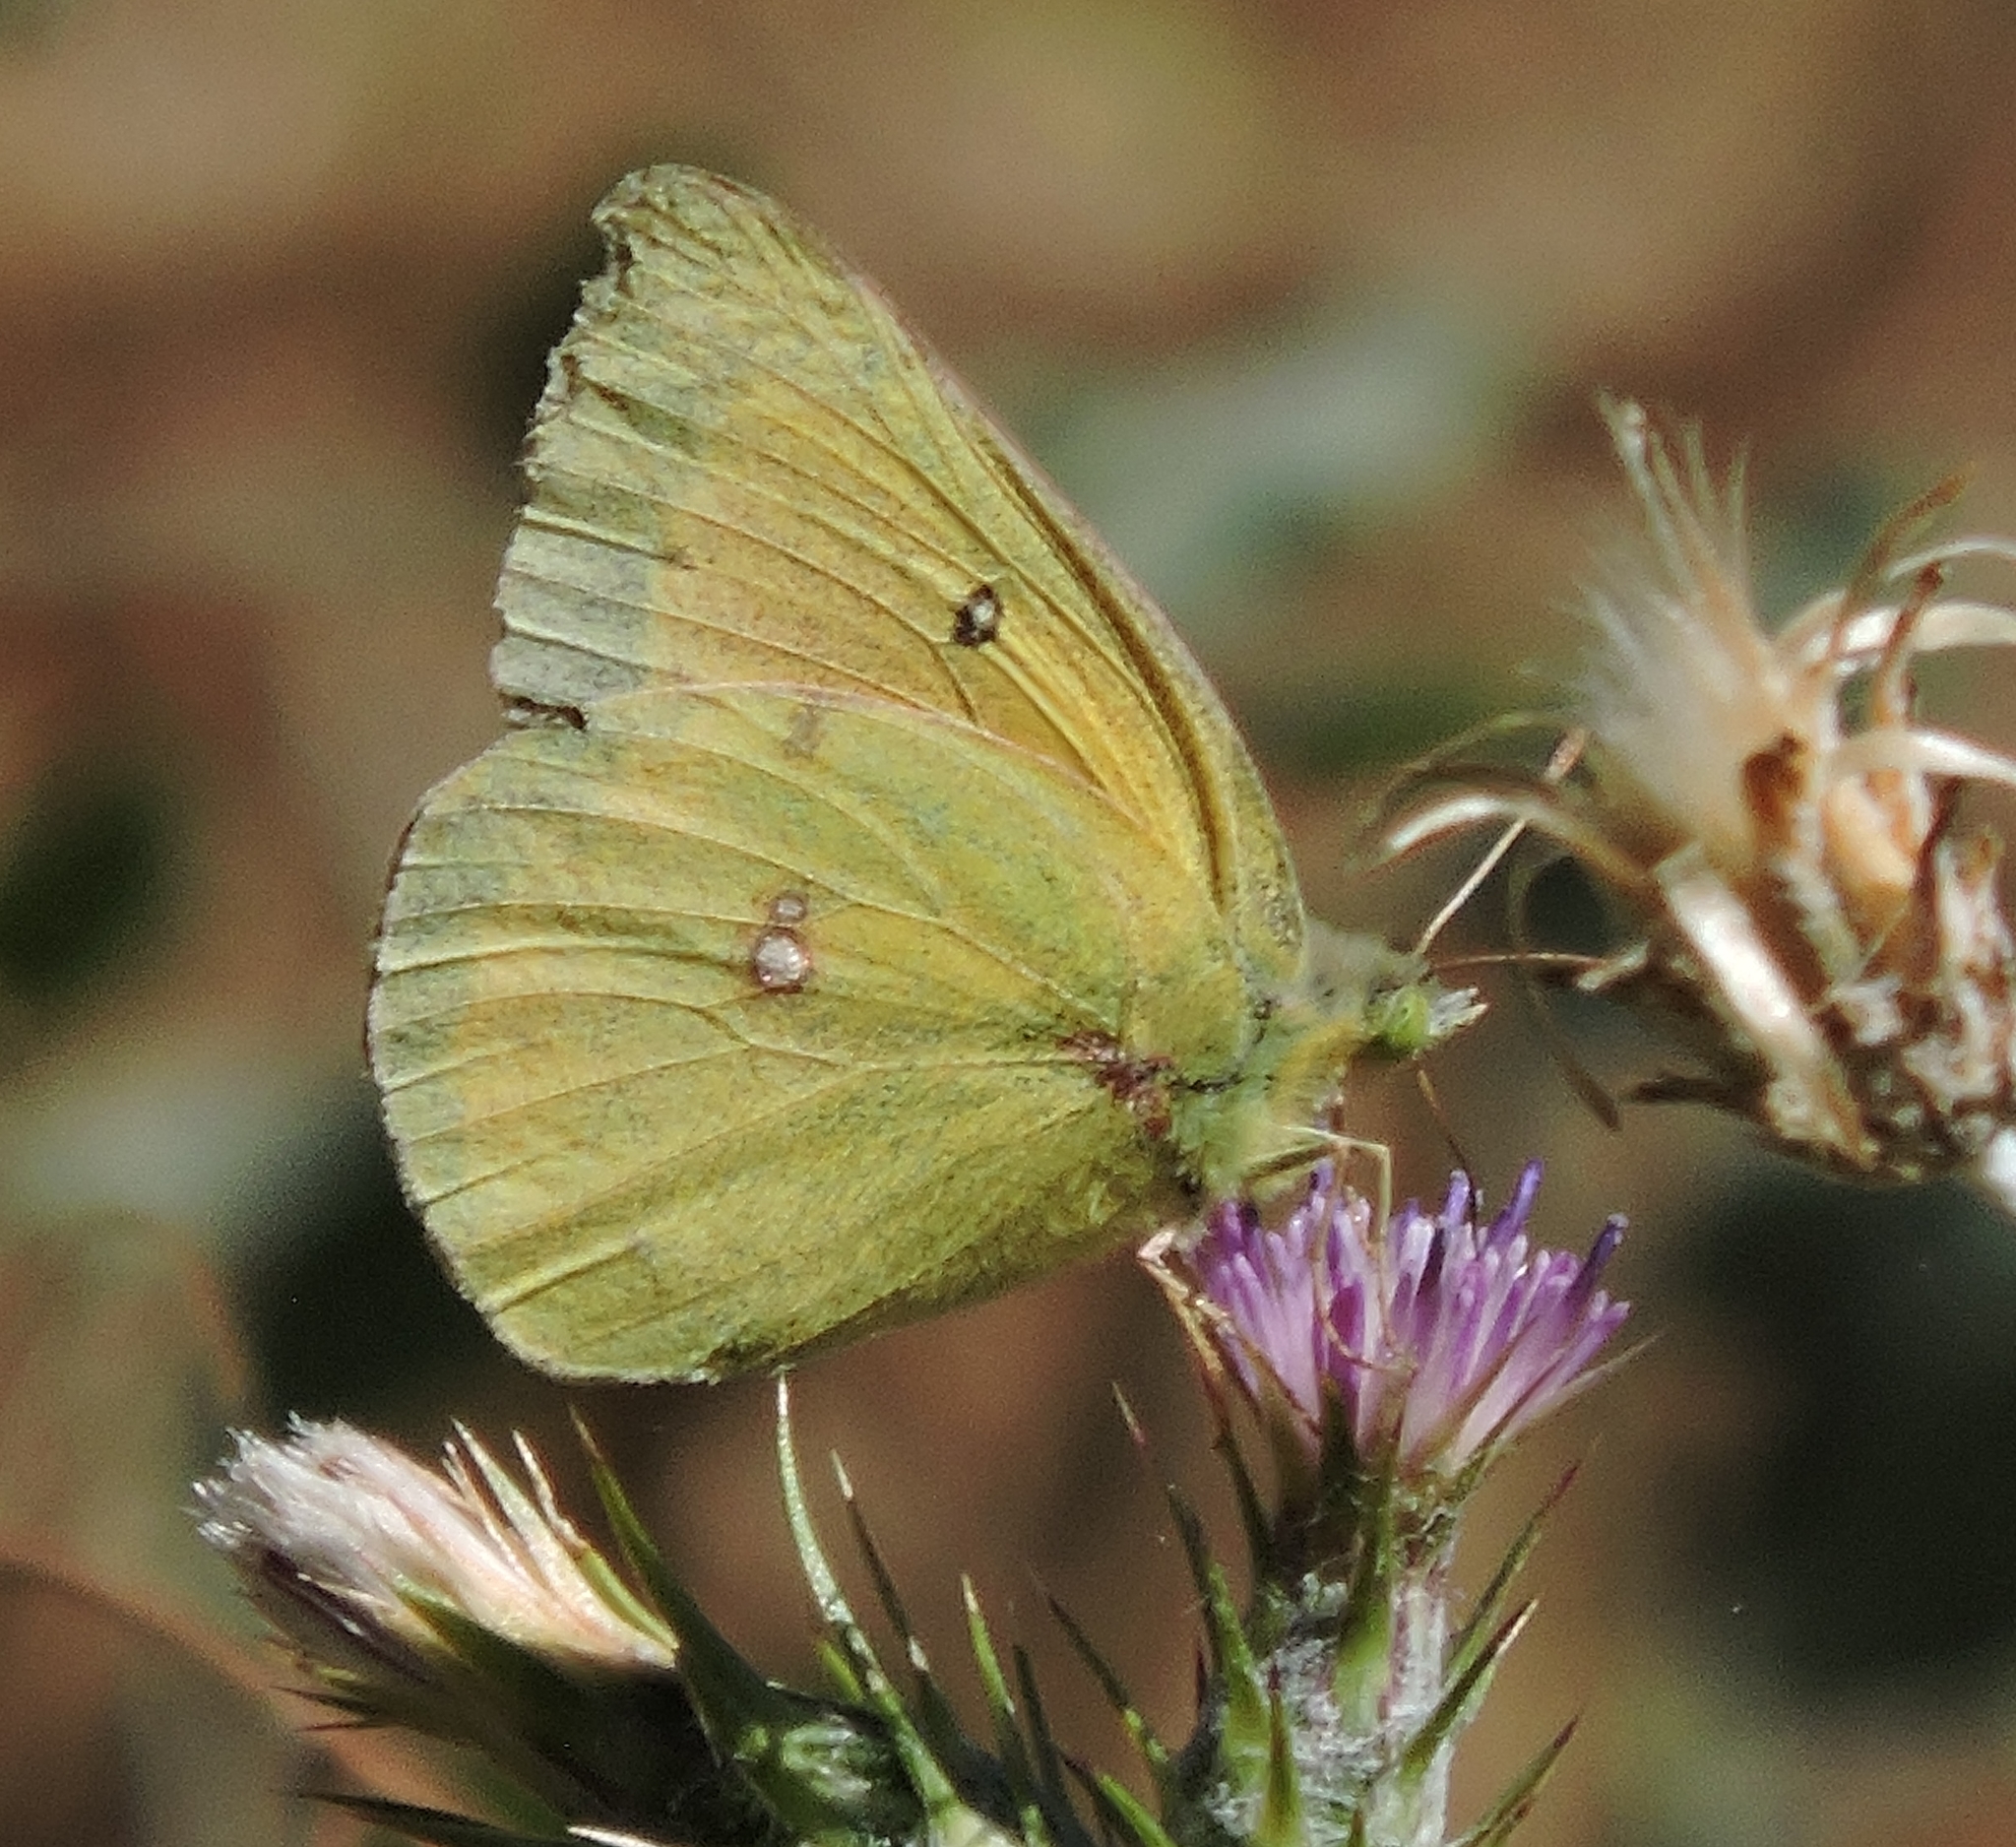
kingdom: Animalia
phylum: Arthropoda
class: Insecta
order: Lepidoptera
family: Pieridae
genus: Colias
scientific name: Colias eurytheme
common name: Alfalfa butterfly
